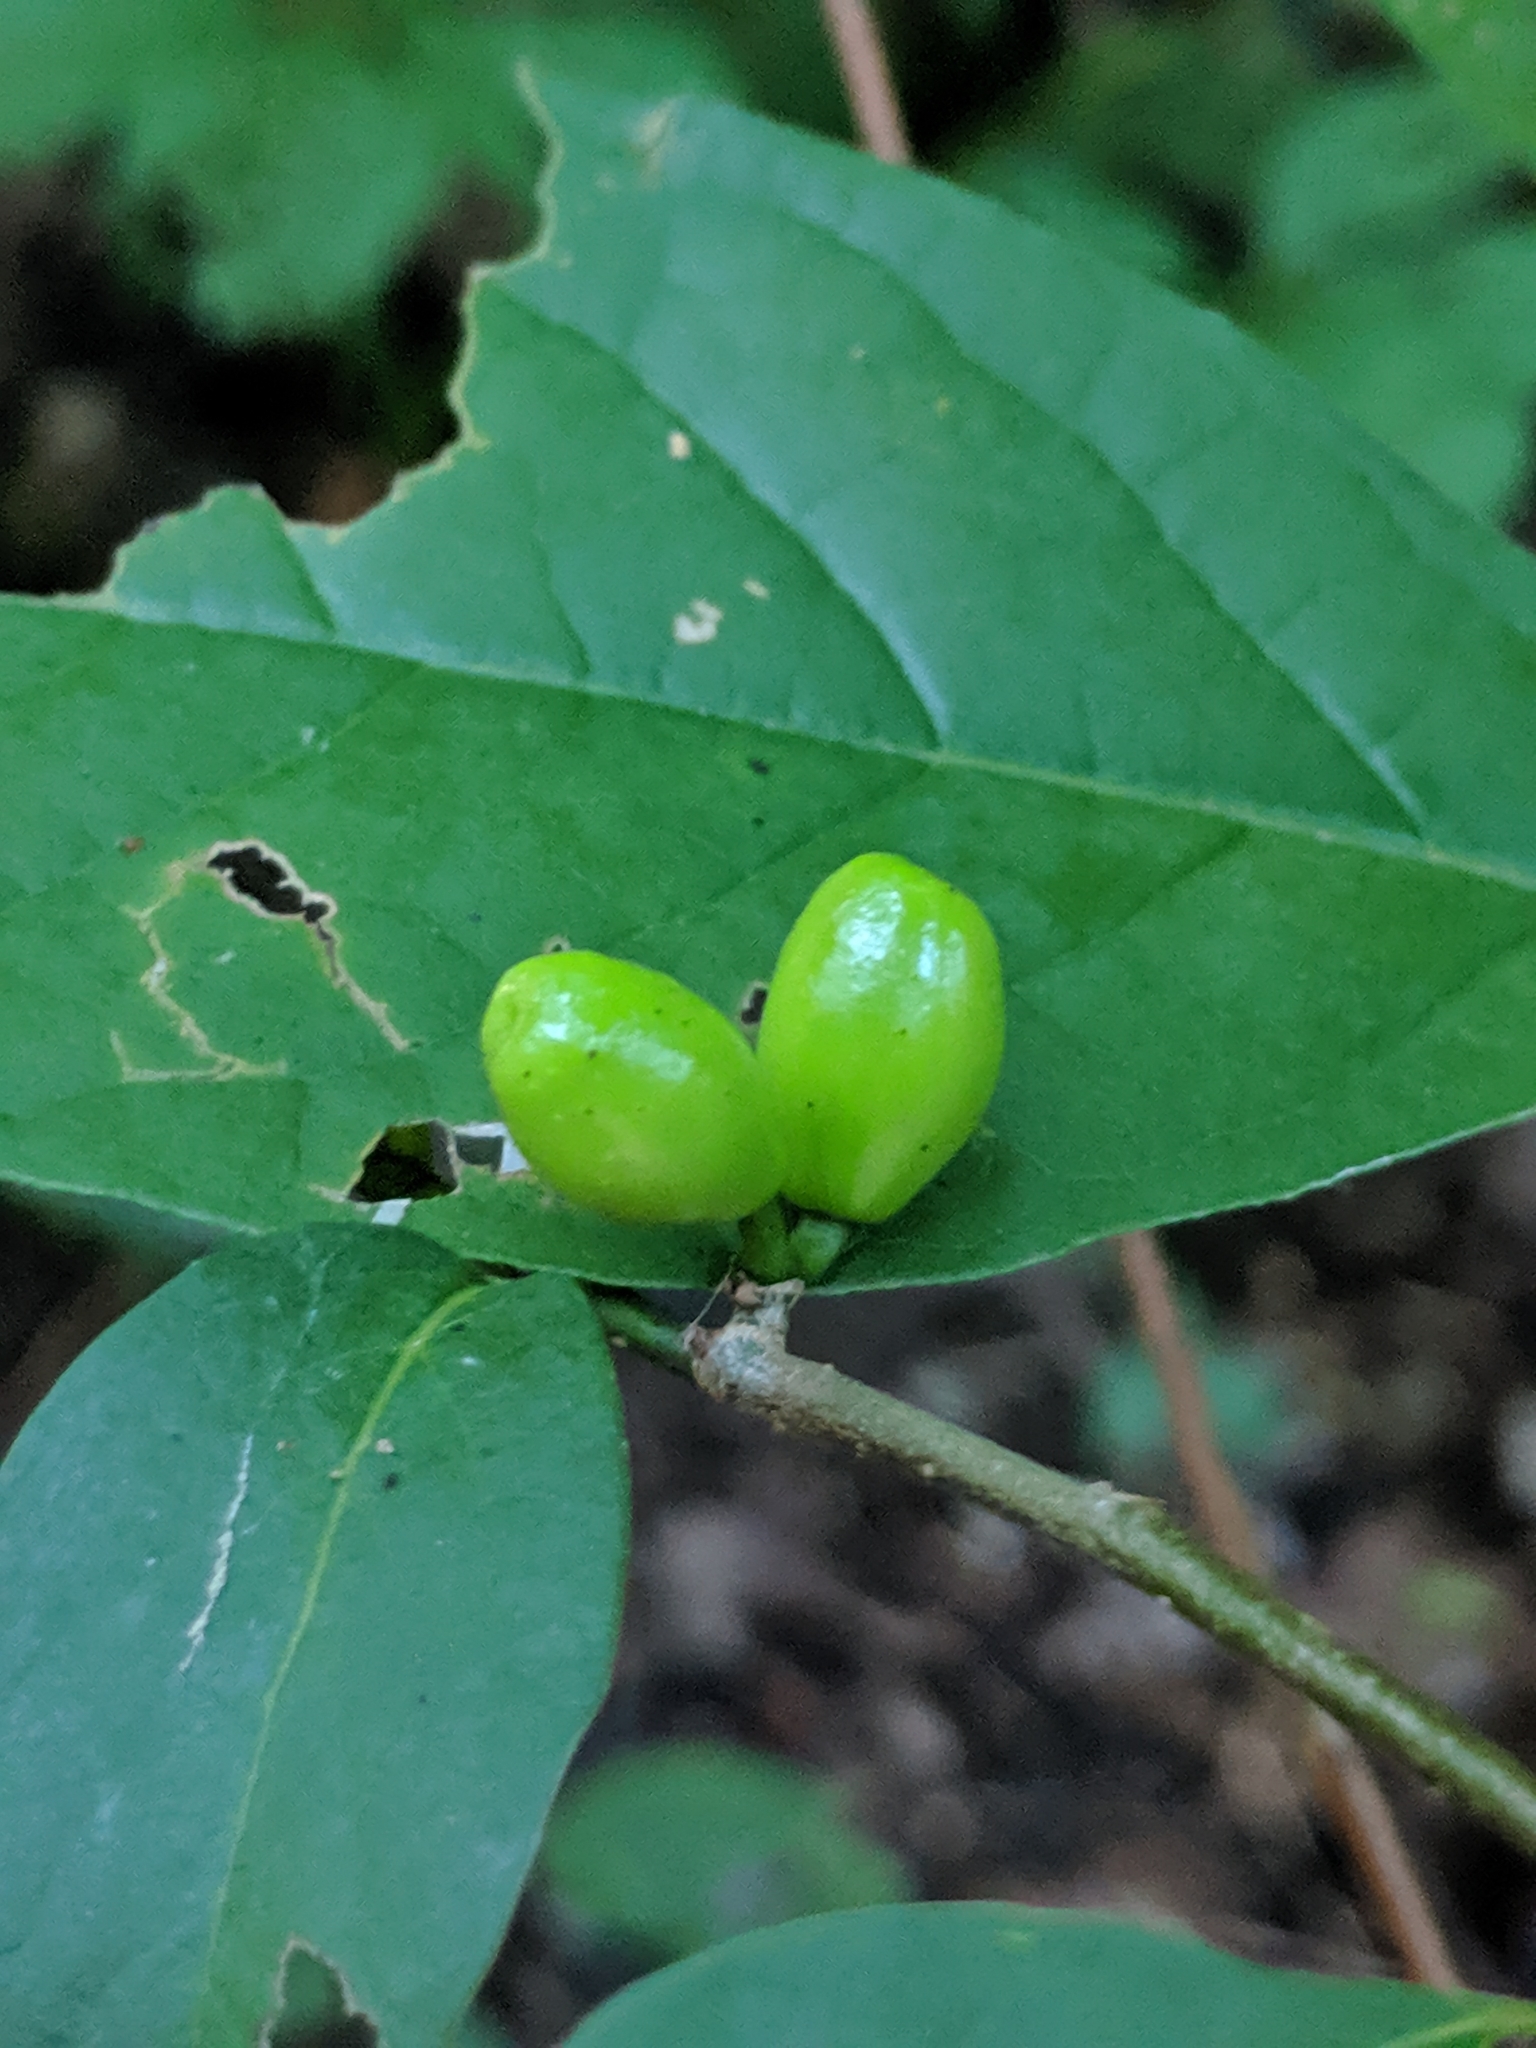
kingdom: Plantae
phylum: Tracheophyta
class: Magnoliopsida
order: Laurales
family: Lauraceae
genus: Lindera
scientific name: Lindera benzoin
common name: Spicebush
